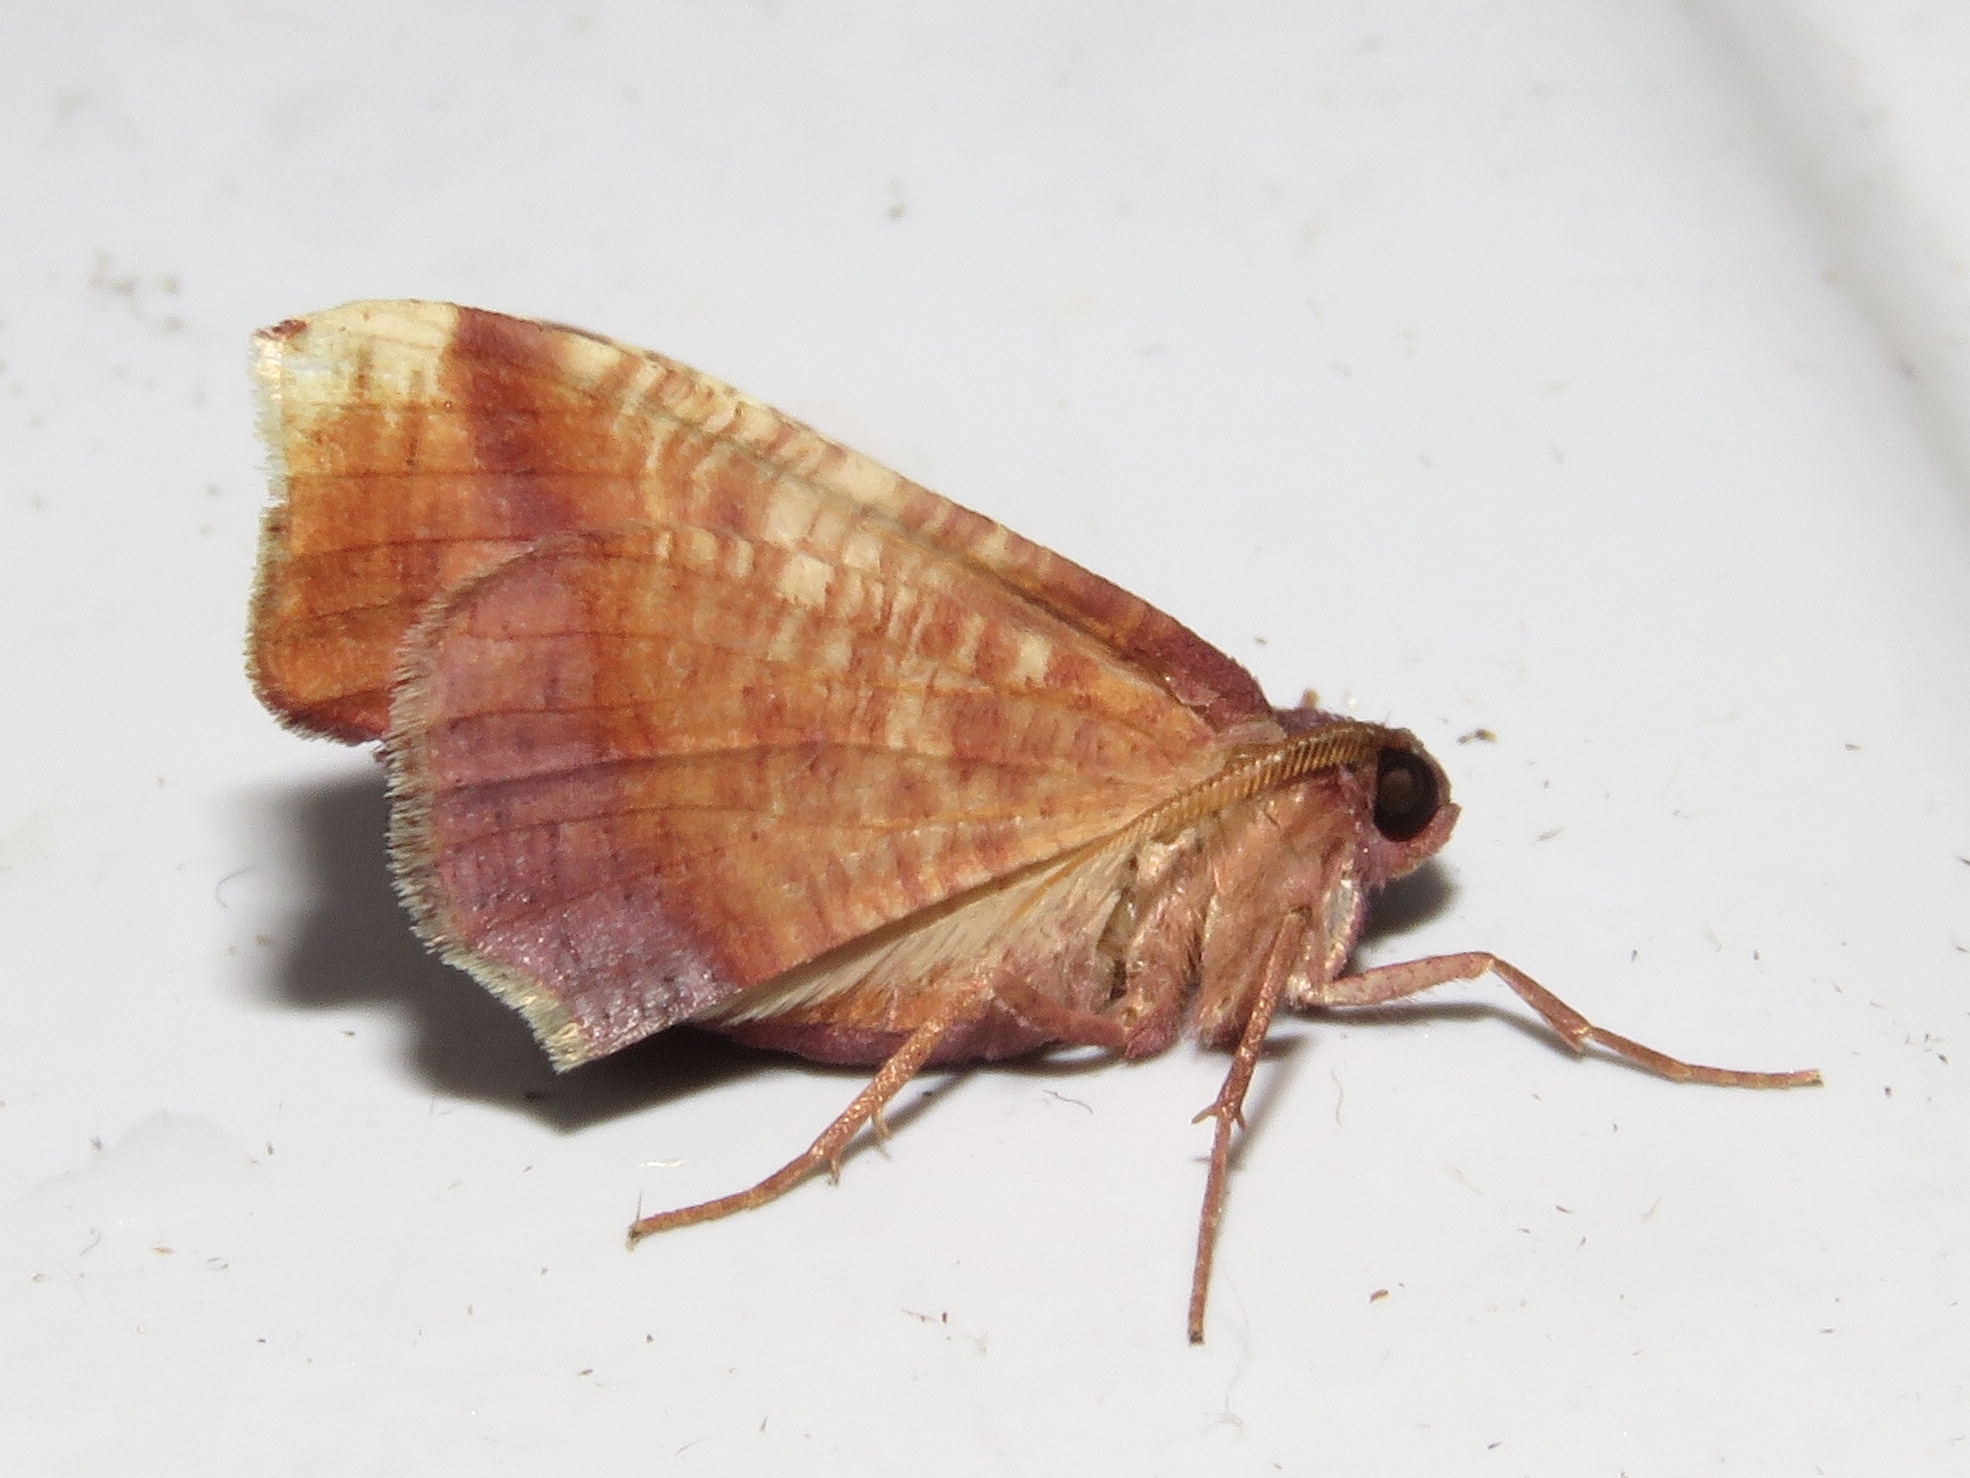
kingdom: Animalia
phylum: Arthropoda
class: Insecta
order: Lepidoptera
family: Geometridae
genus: Plagodis
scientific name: Plagodis phlogosaria
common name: Straight-lined plagodis
